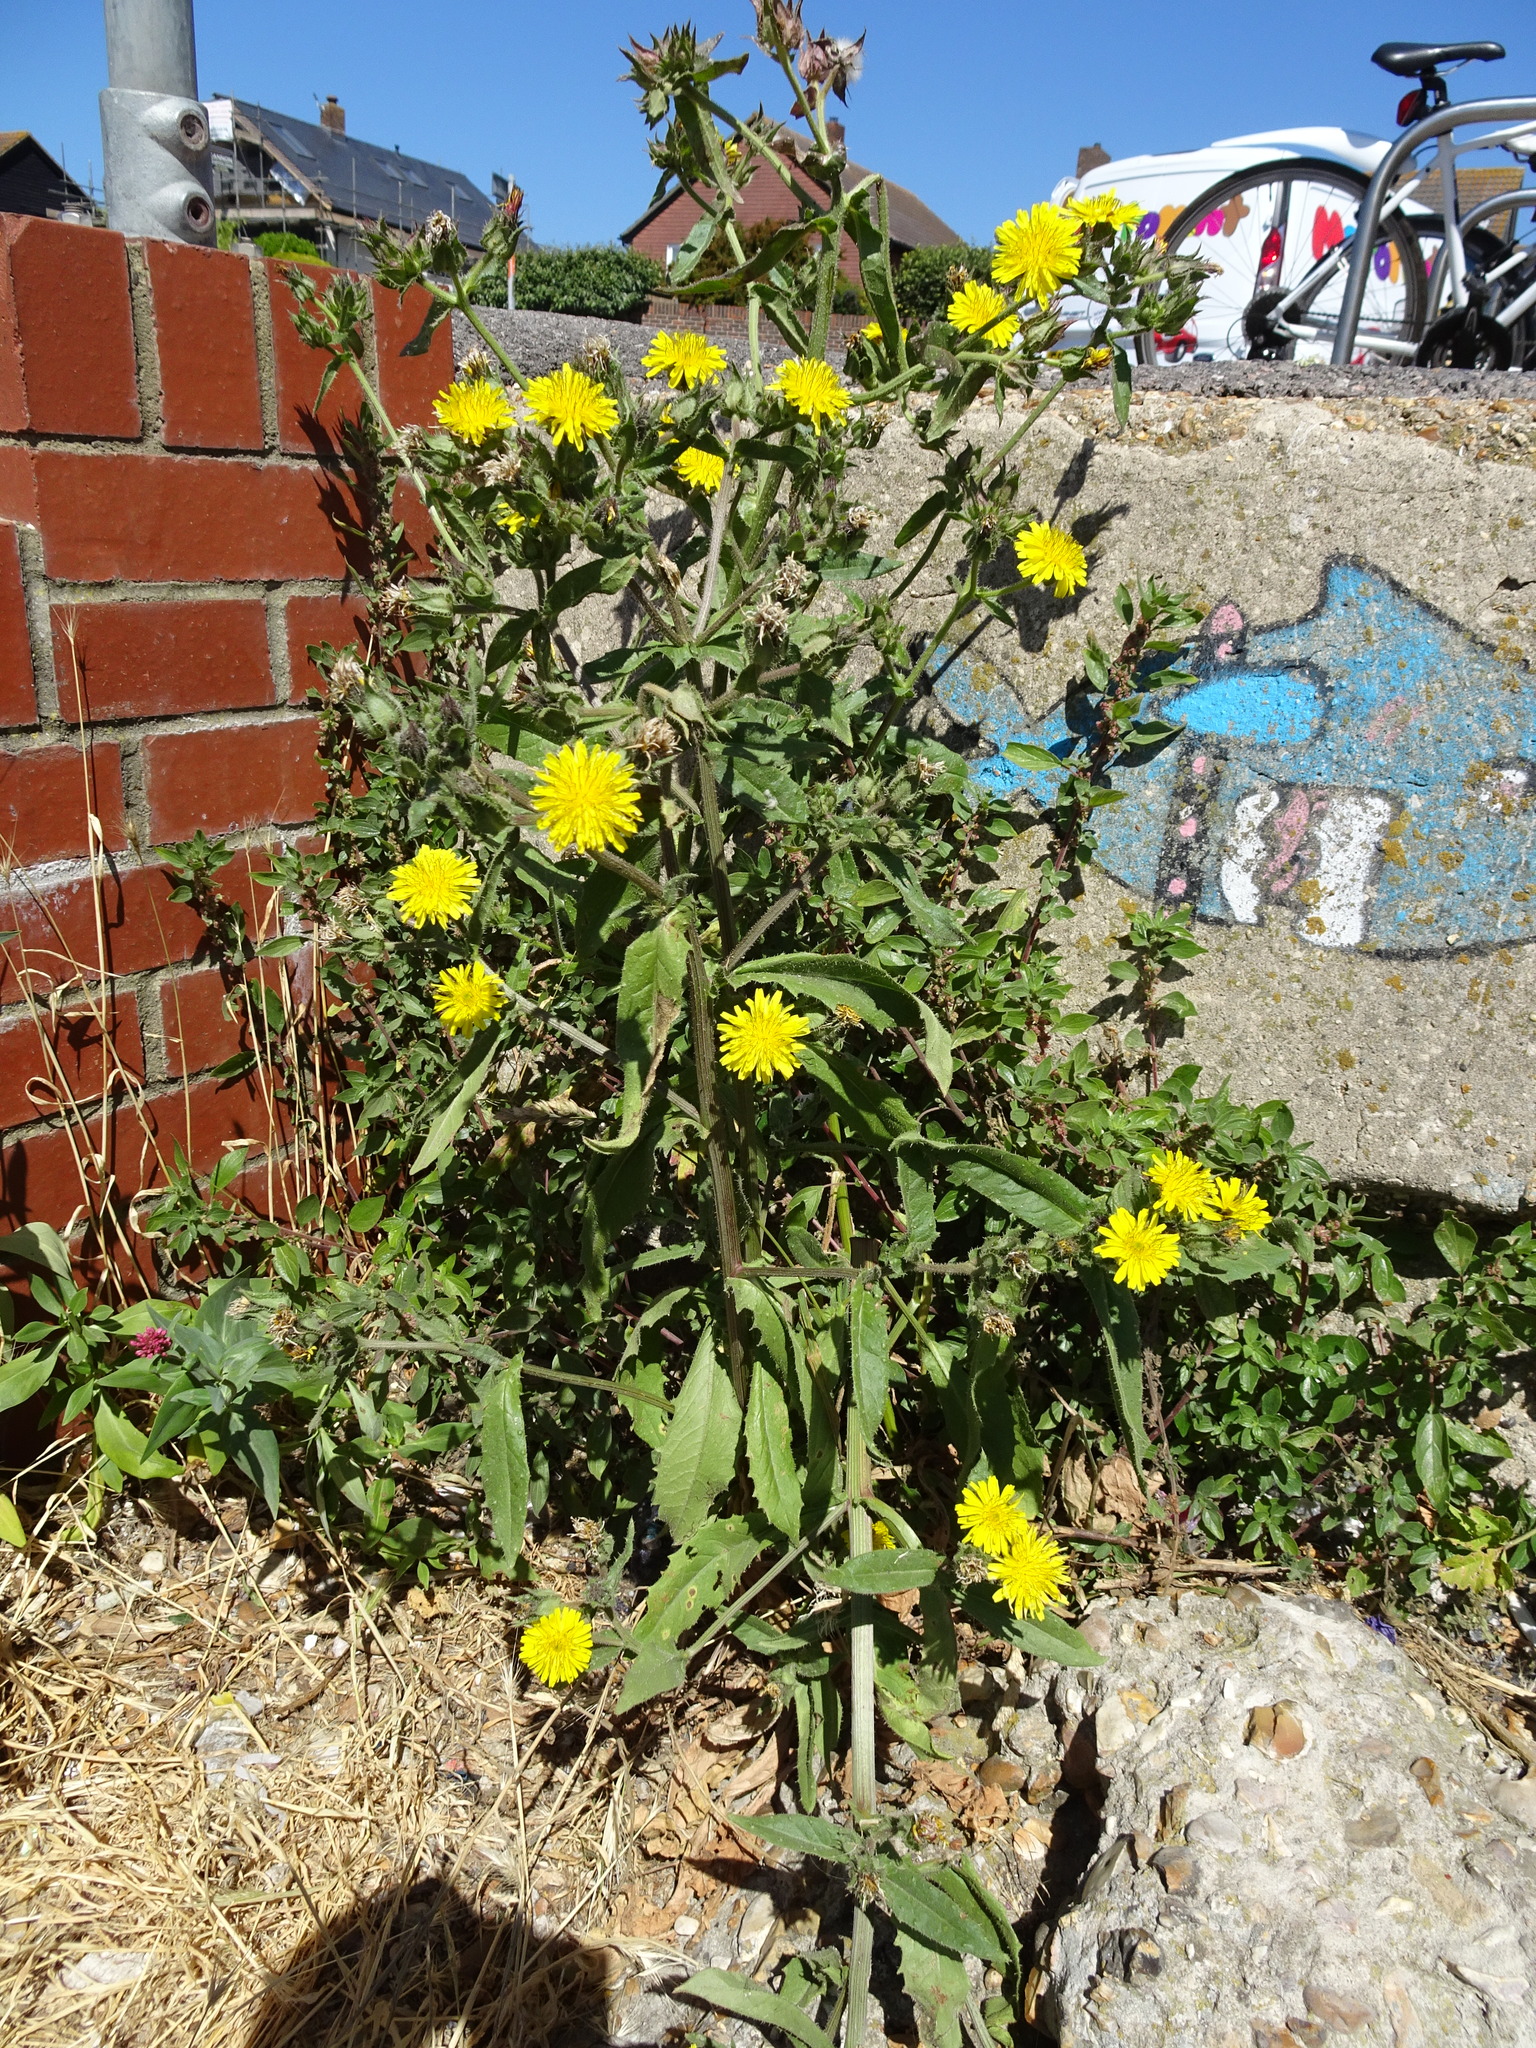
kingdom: Plantae
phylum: Tracheophyta
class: Magnoliopsida
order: Asterales
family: Asteraceae
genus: Helminthotheca
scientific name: Helminthotheca echioides
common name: Ox-tongue
